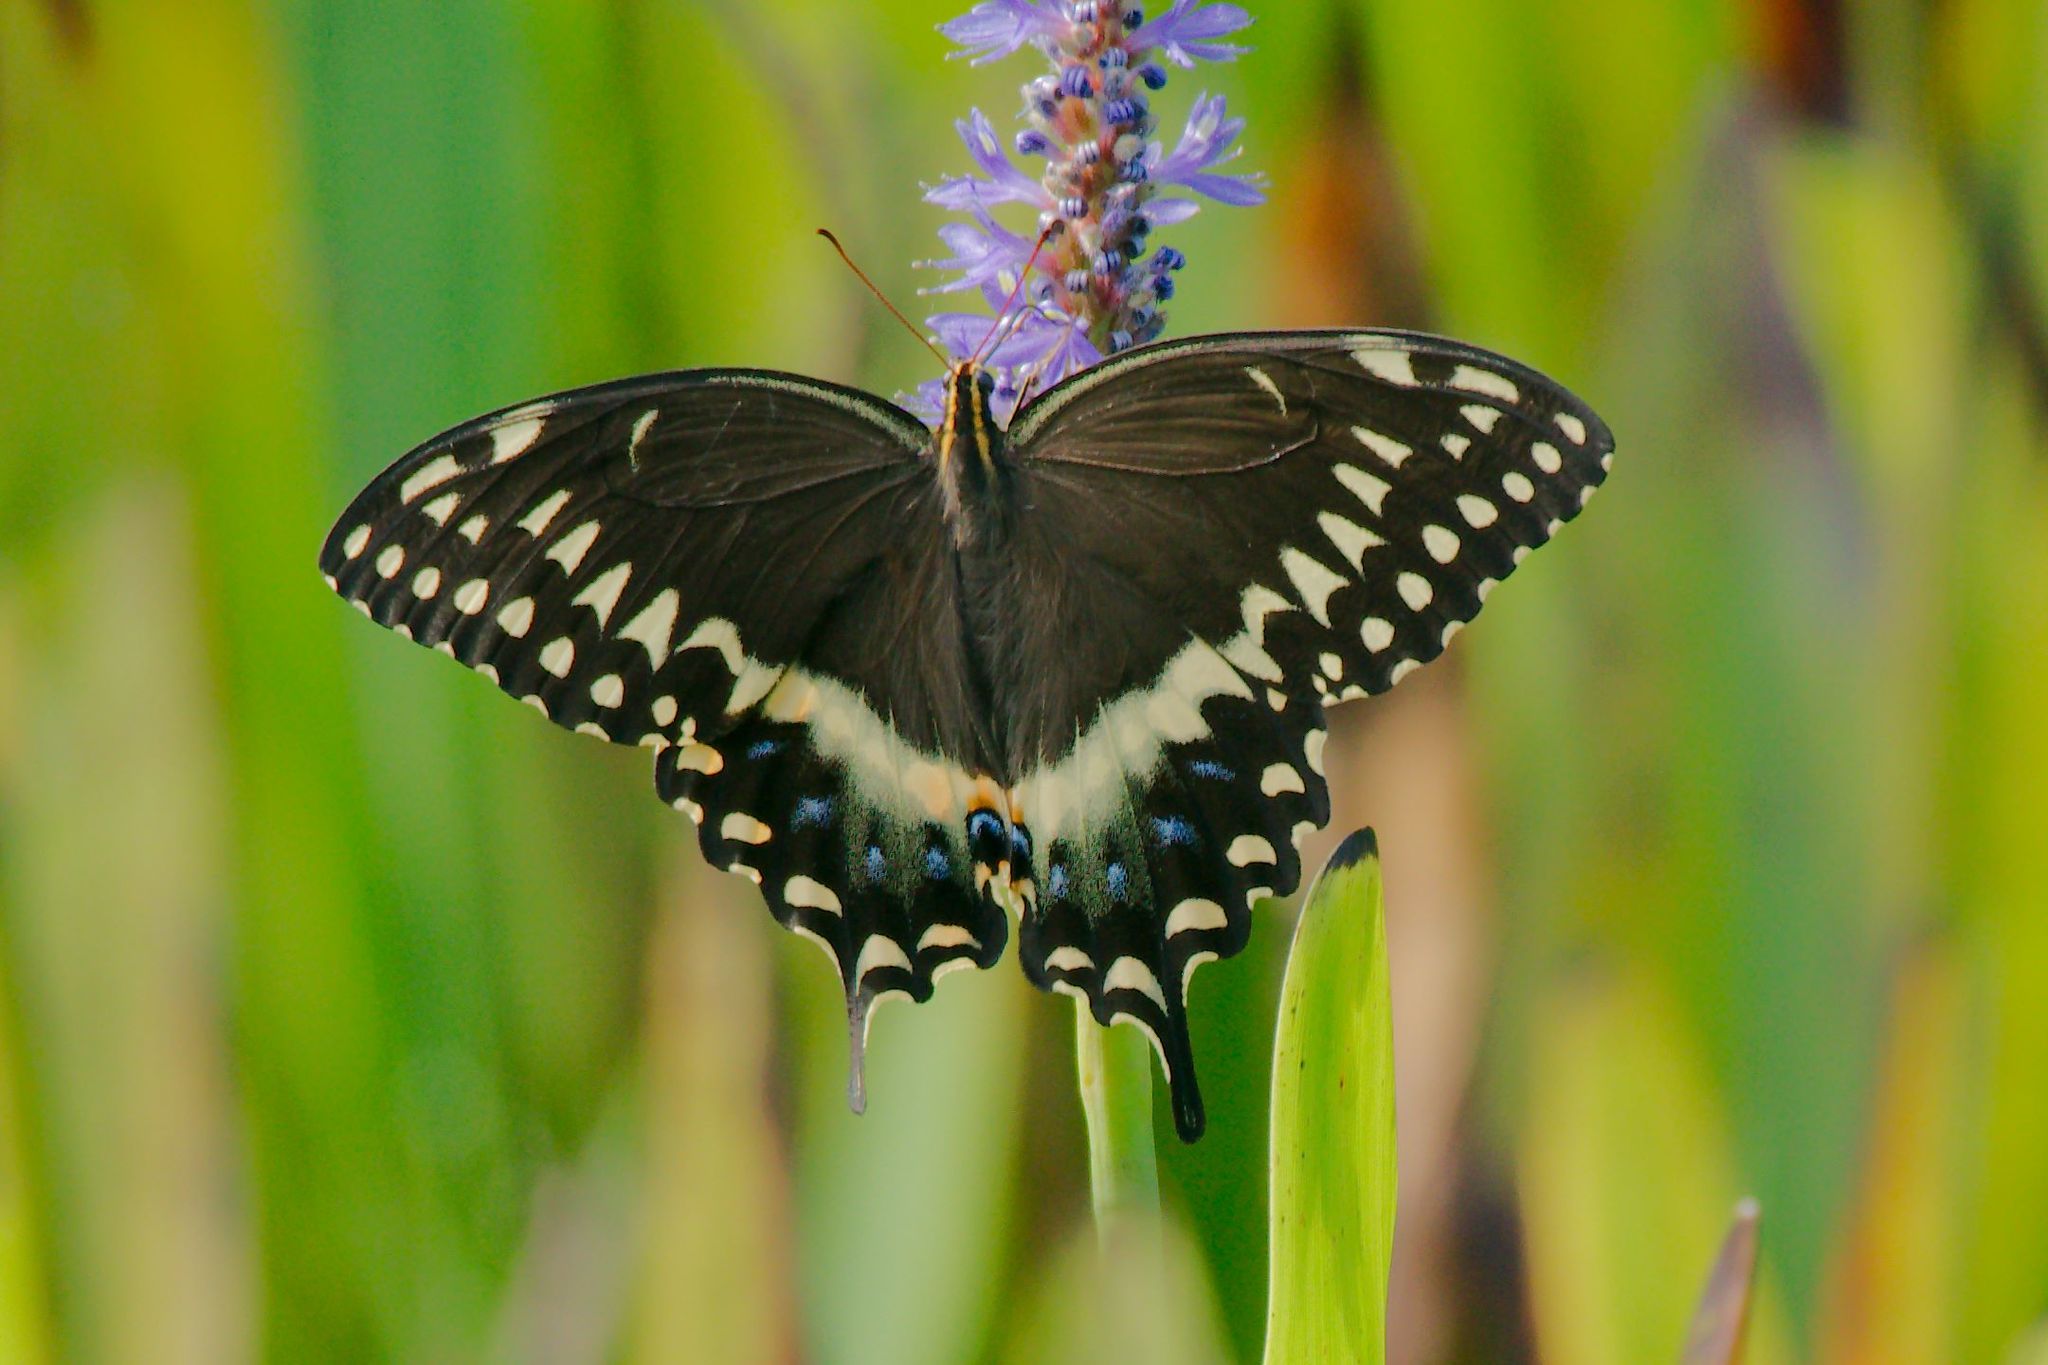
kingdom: Animalia
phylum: Arthropoda
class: Insecta
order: Lepidoptera
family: Papilionidae
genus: Papilio
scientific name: Papilio palamedes
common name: Palamedes swallowtail
